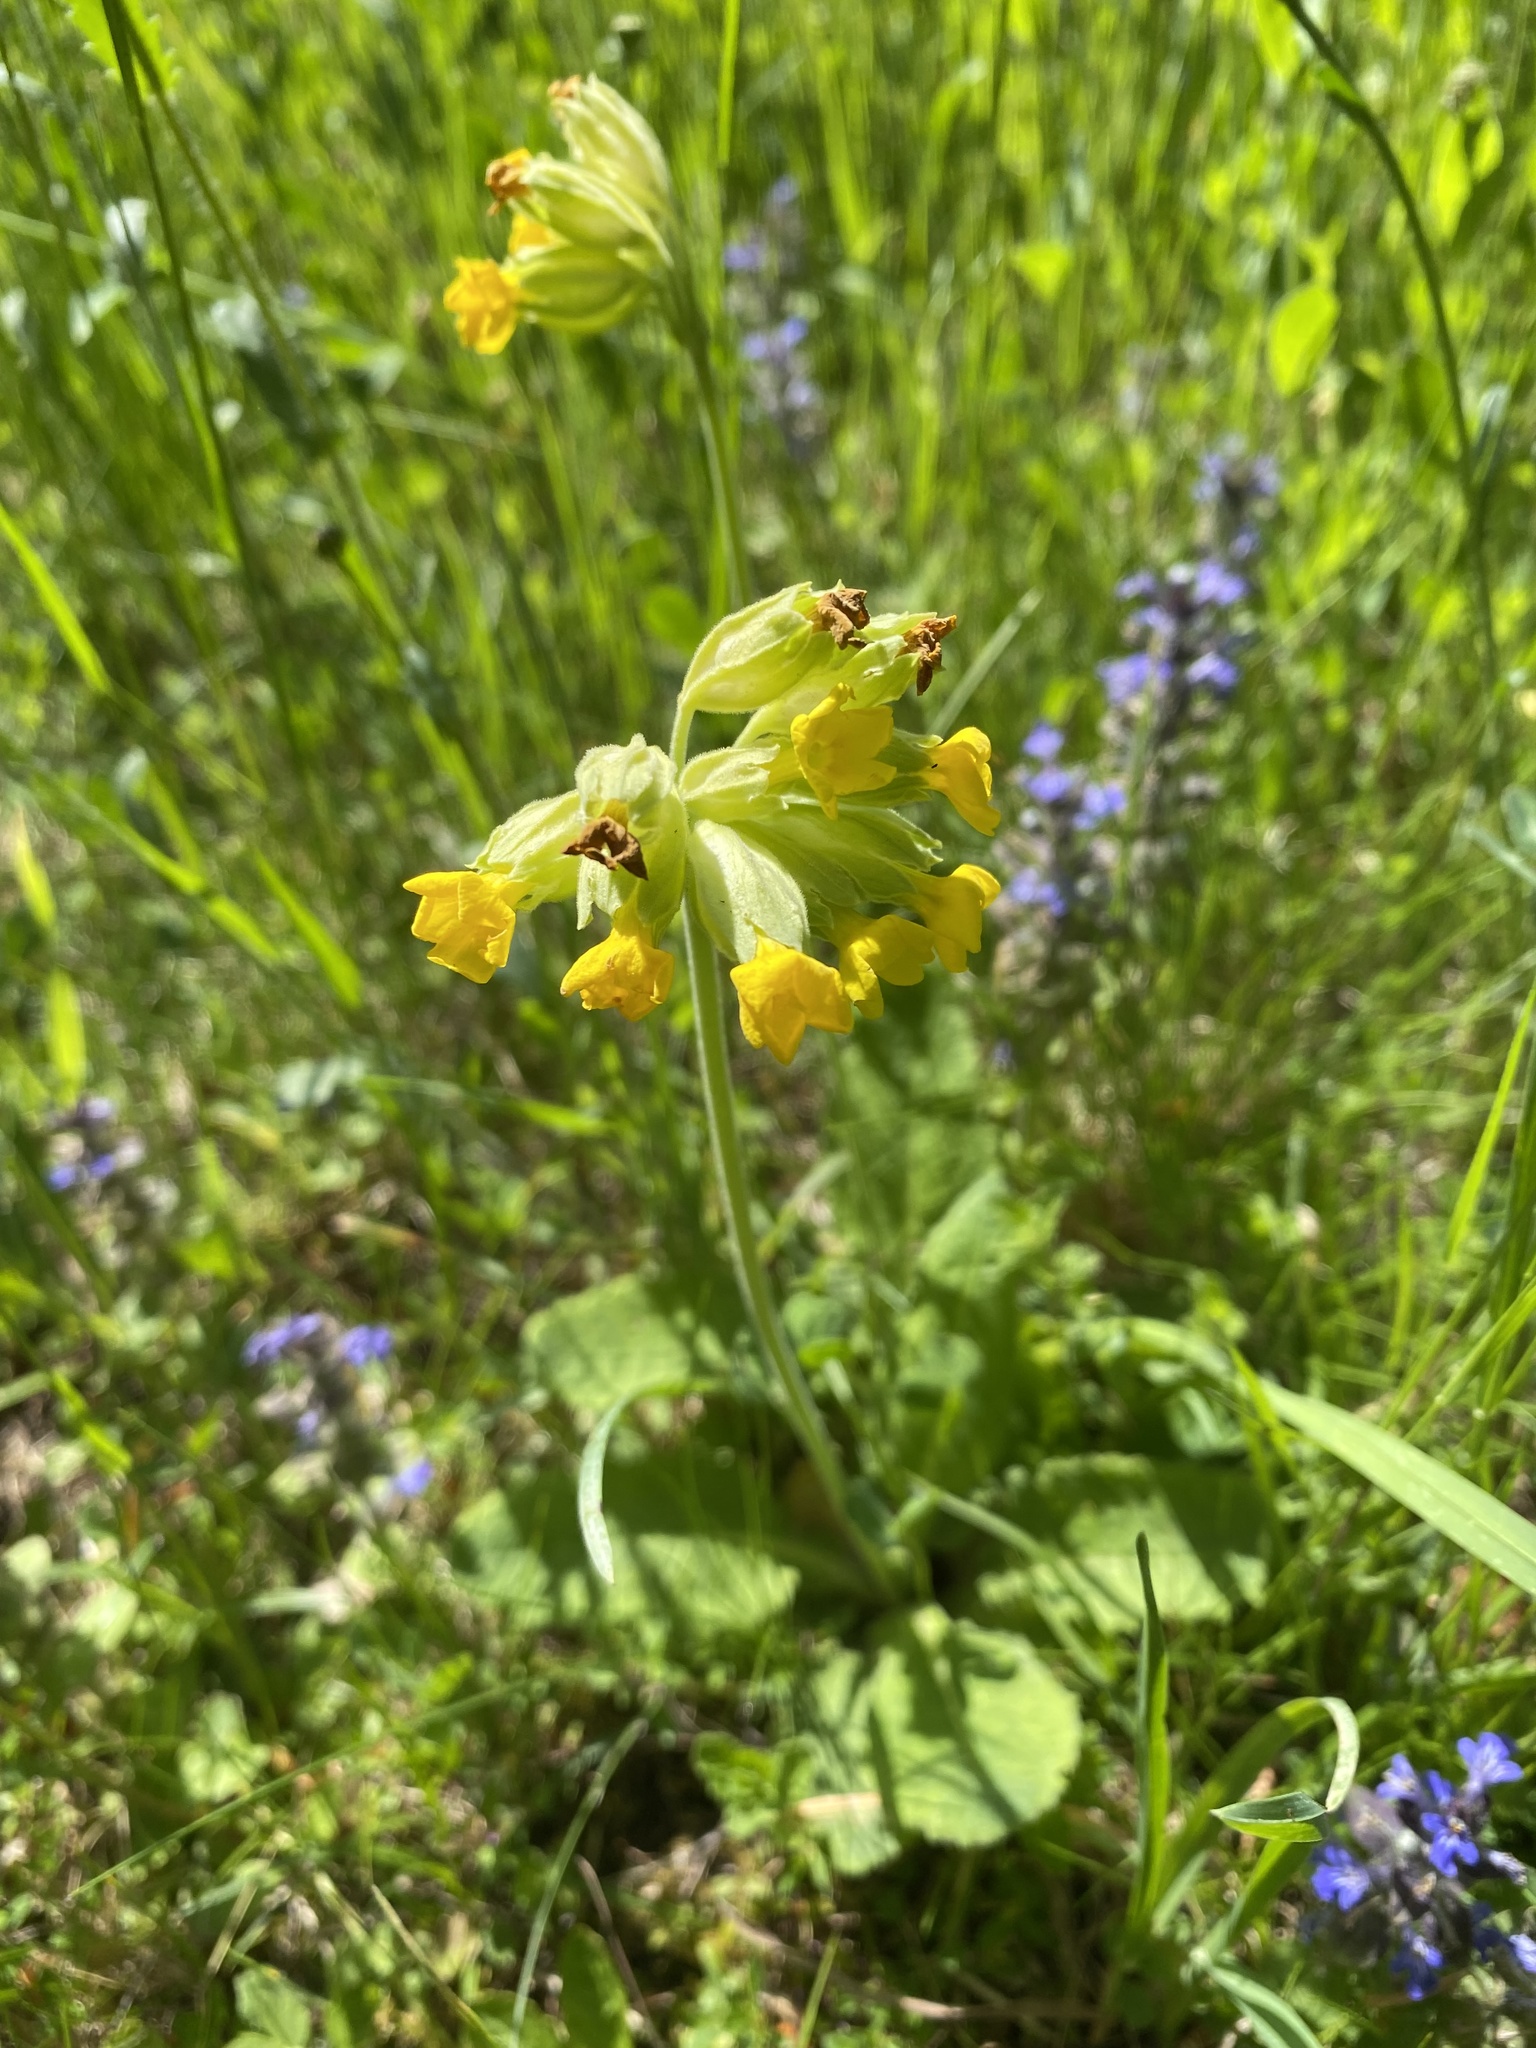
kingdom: Plantae
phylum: Tracheophyta
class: Magnoliopsida
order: Ericales
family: Primulaceae
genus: Primula
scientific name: Primula veris
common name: Cowslip
